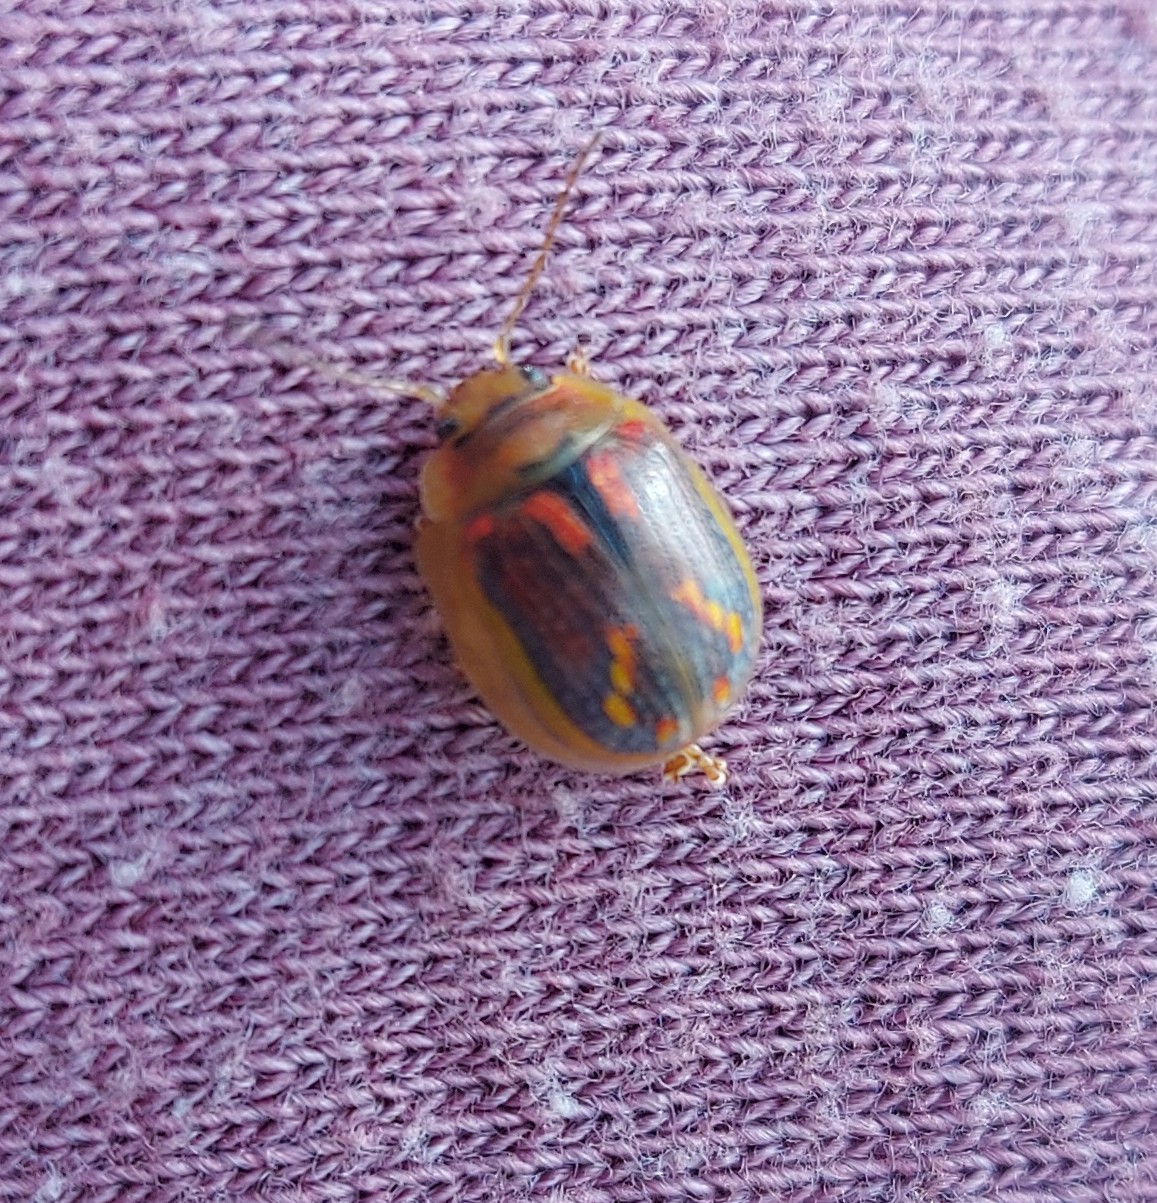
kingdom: Animalia
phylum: Arthropoda
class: Insecta
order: Coleoptera
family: Chrysomelidae
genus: Paropsisterna
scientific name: Paropsisterna selmani
